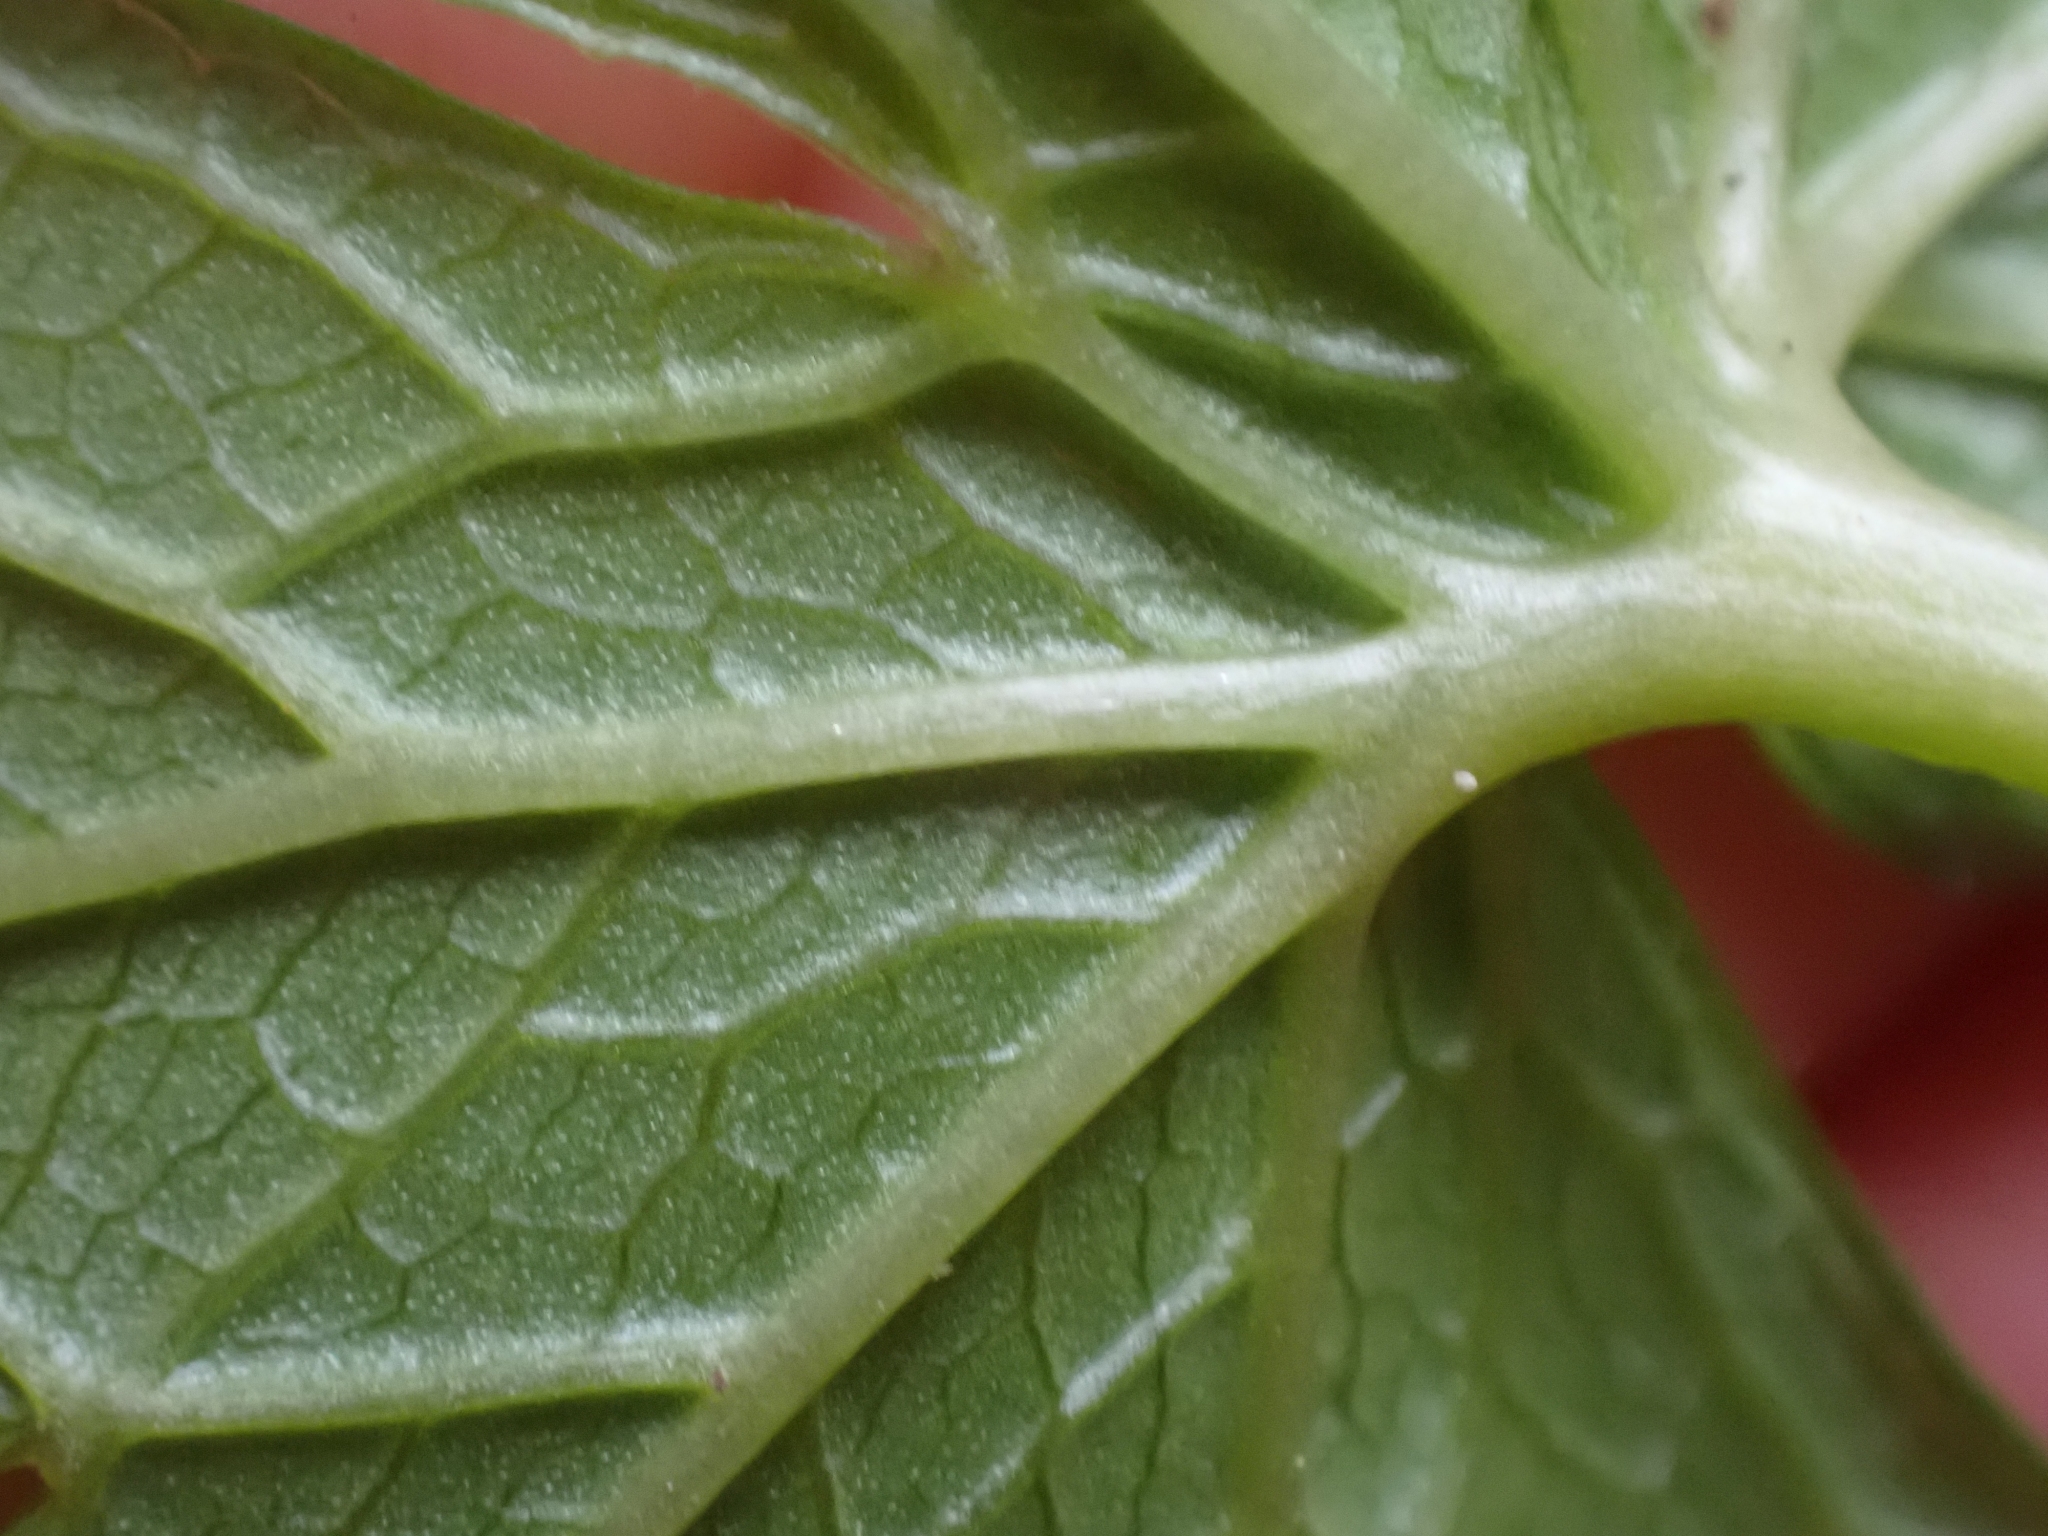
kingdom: Plantae
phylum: Tracheophyta
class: Magnoliopsida
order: Ranunculales
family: Ranunculaceae
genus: Trautvetteria
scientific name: Trautvetteria carolinensis
